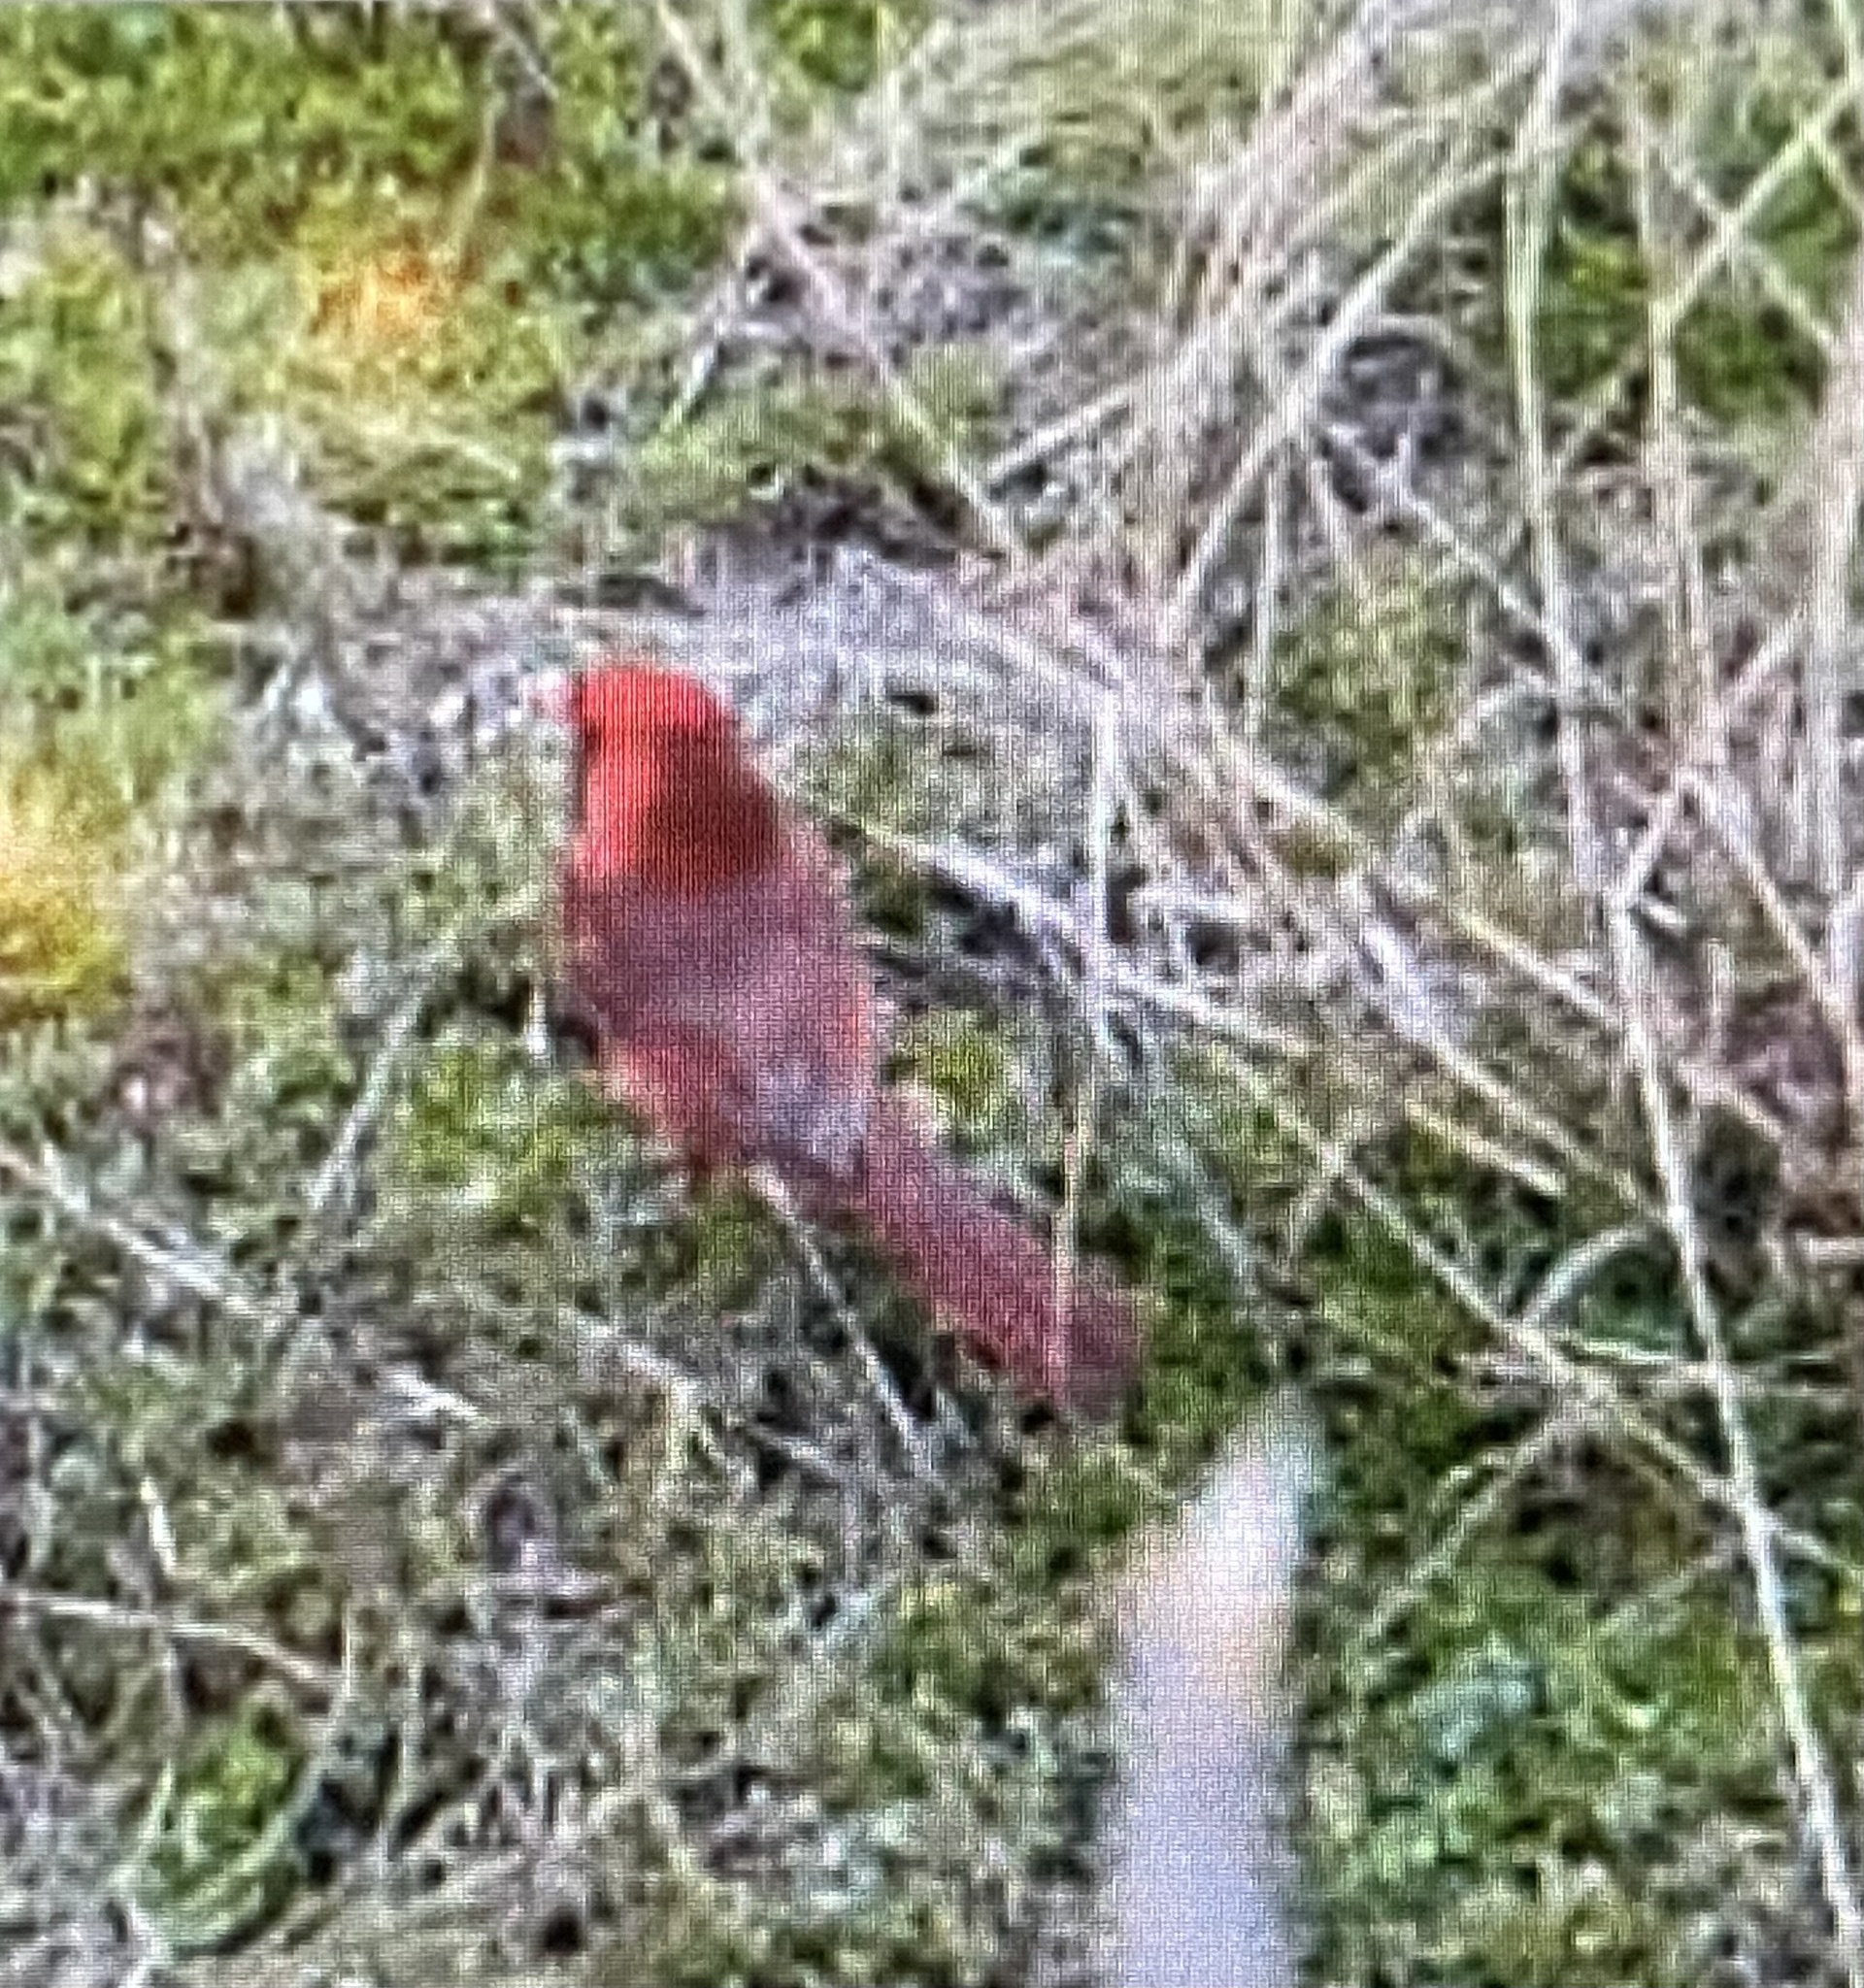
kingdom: Animalia
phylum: Chordata
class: Aves
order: Passeriformes
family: Cardinalidae
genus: Cardinalis
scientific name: Cardinalis cardinalis
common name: Northern cardinal
